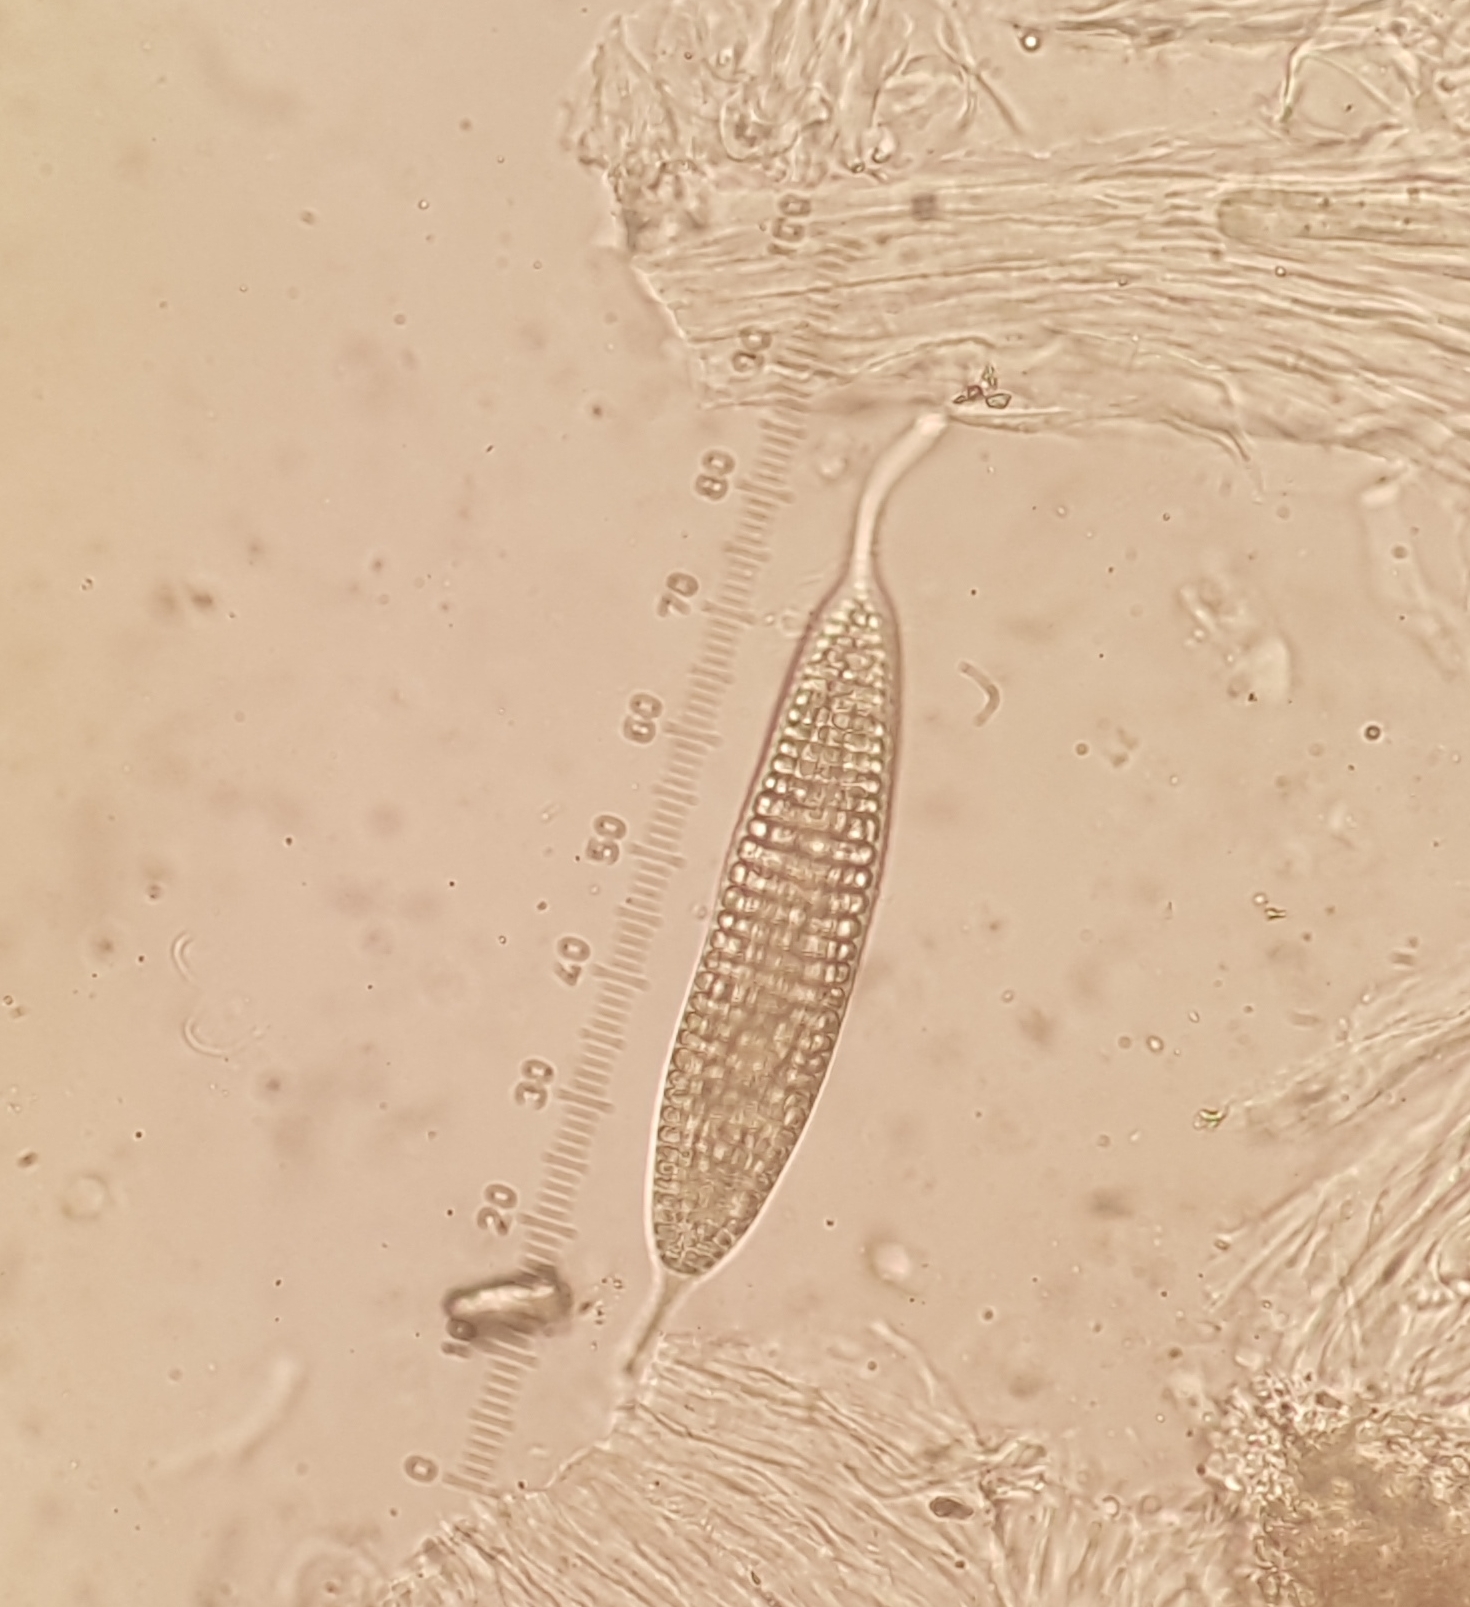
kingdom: Fungi
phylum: Ascomycota
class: Lecanoromycetes
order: Ostropales
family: Graphidaceae
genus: Ocellularia
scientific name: Ocellularia
